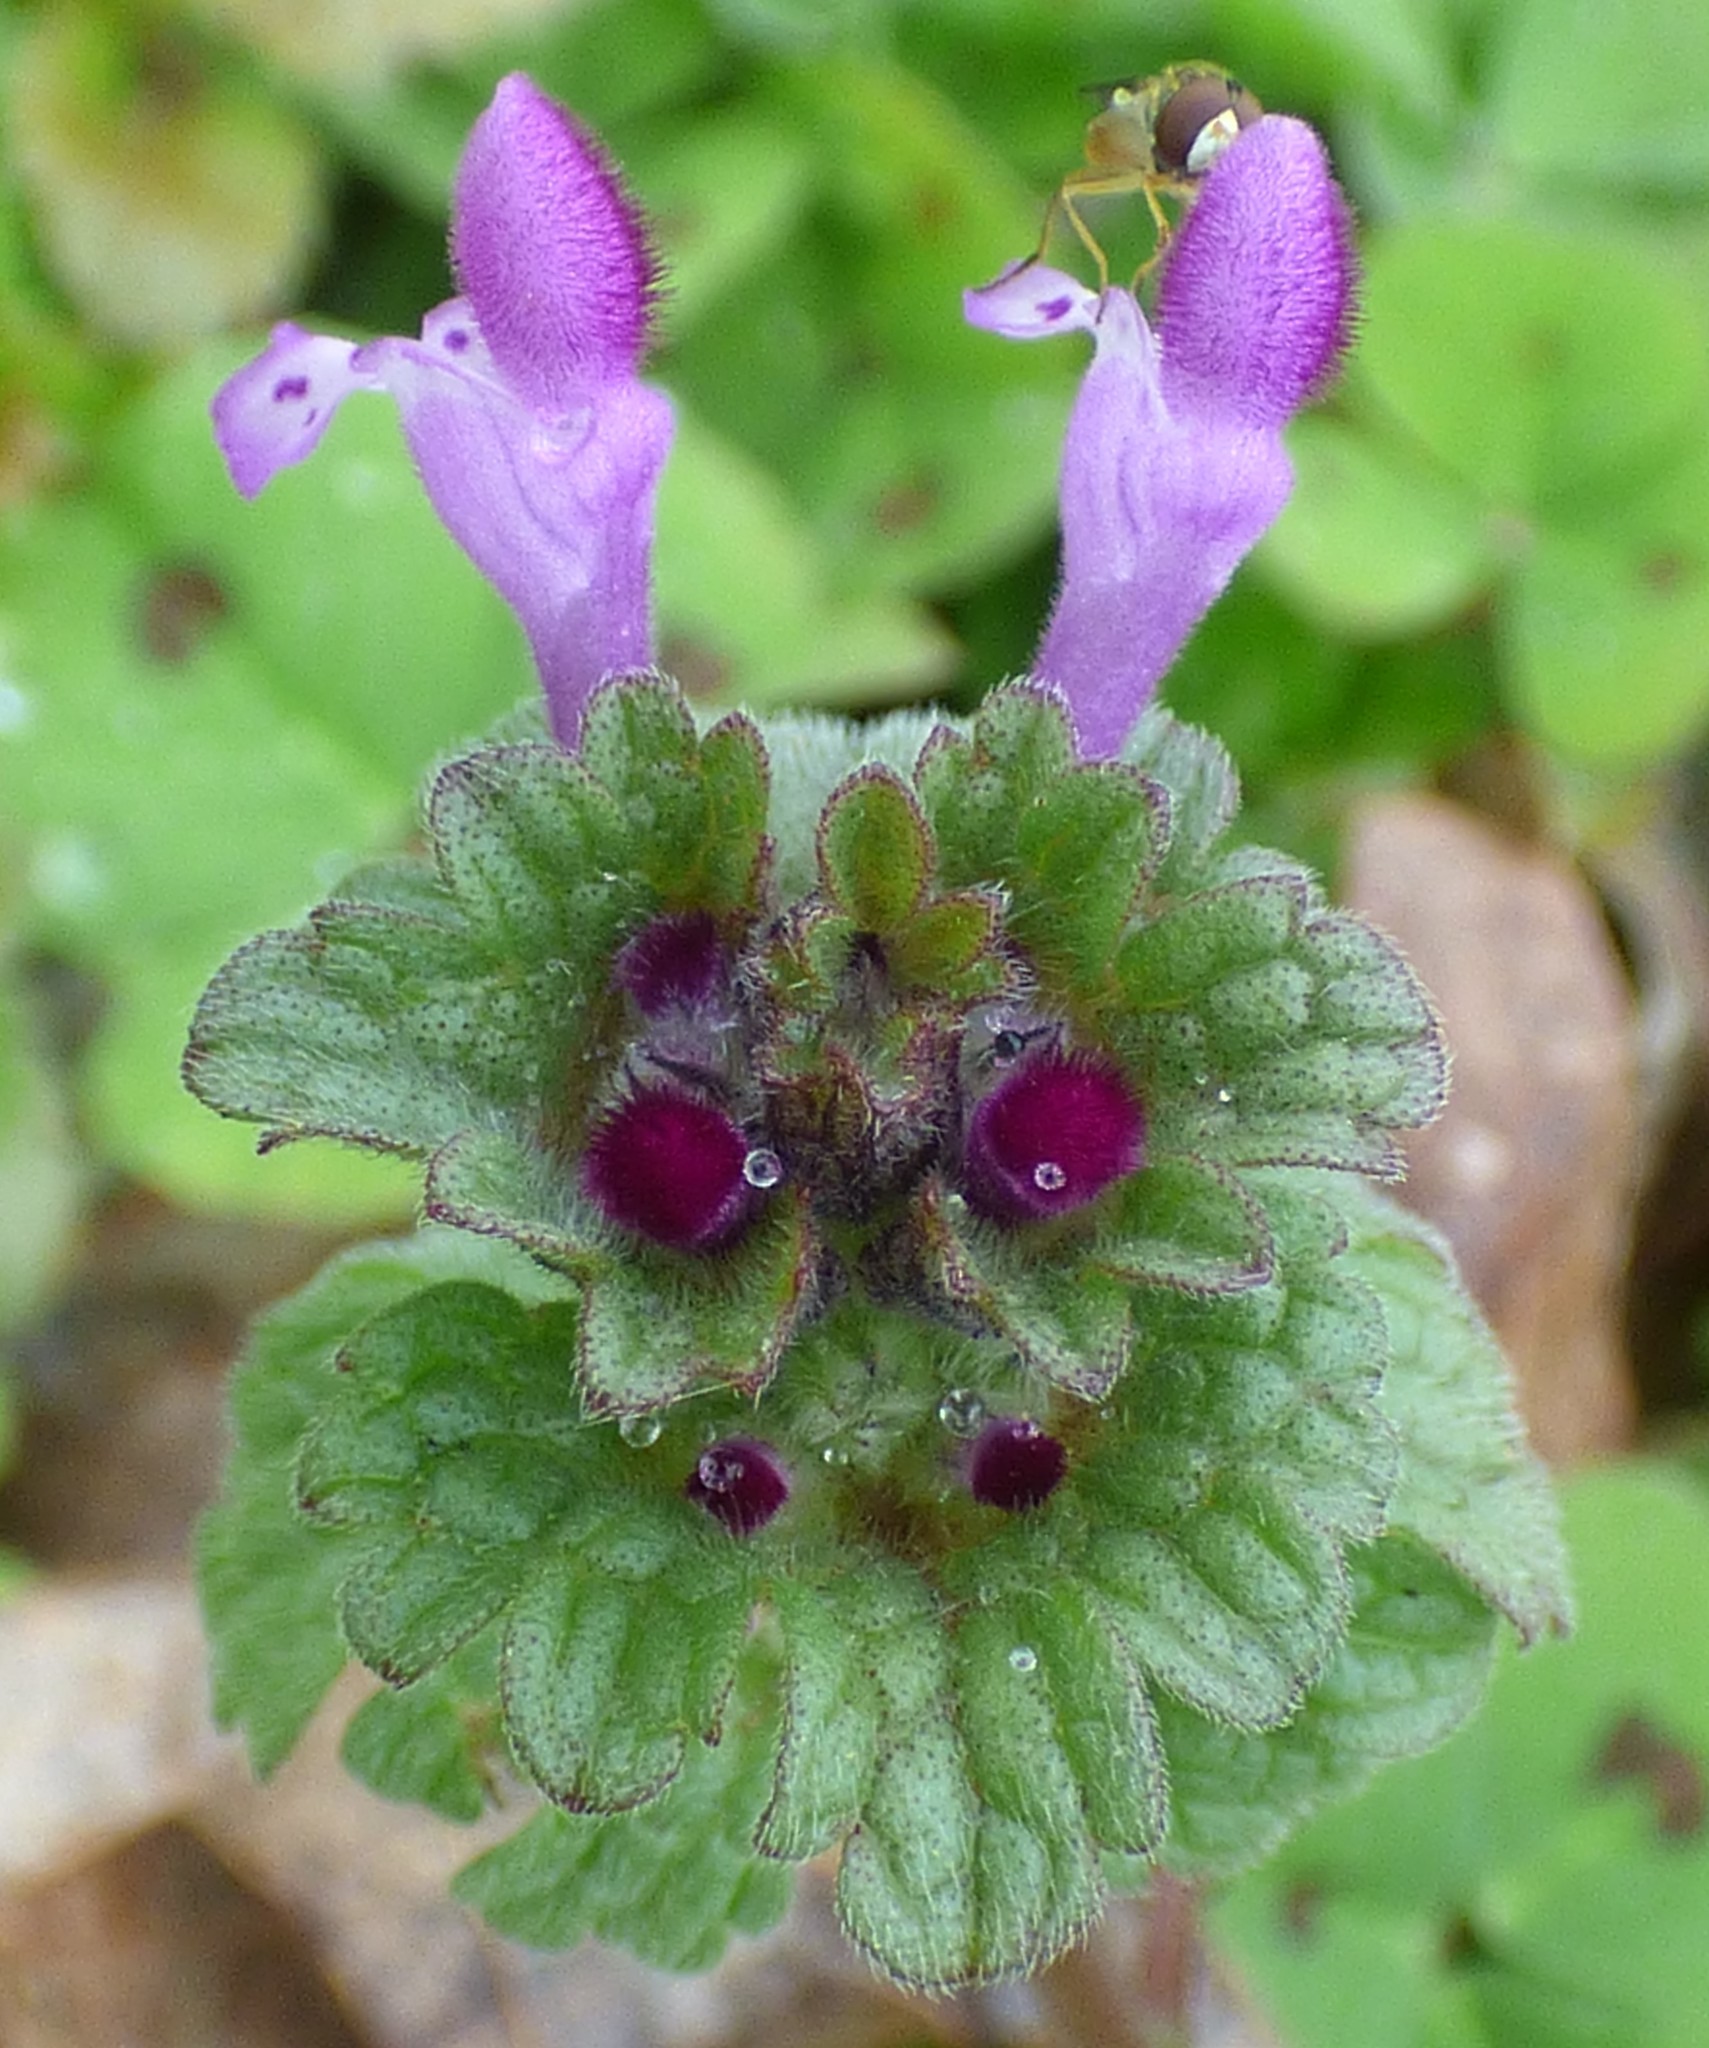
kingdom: Plantae
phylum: Tracheophyta
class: Magnoliopsida
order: Lamiales
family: Lamiaceae
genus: Lamium
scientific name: Lamium amplexicaule
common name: Henbit dead-nettle
